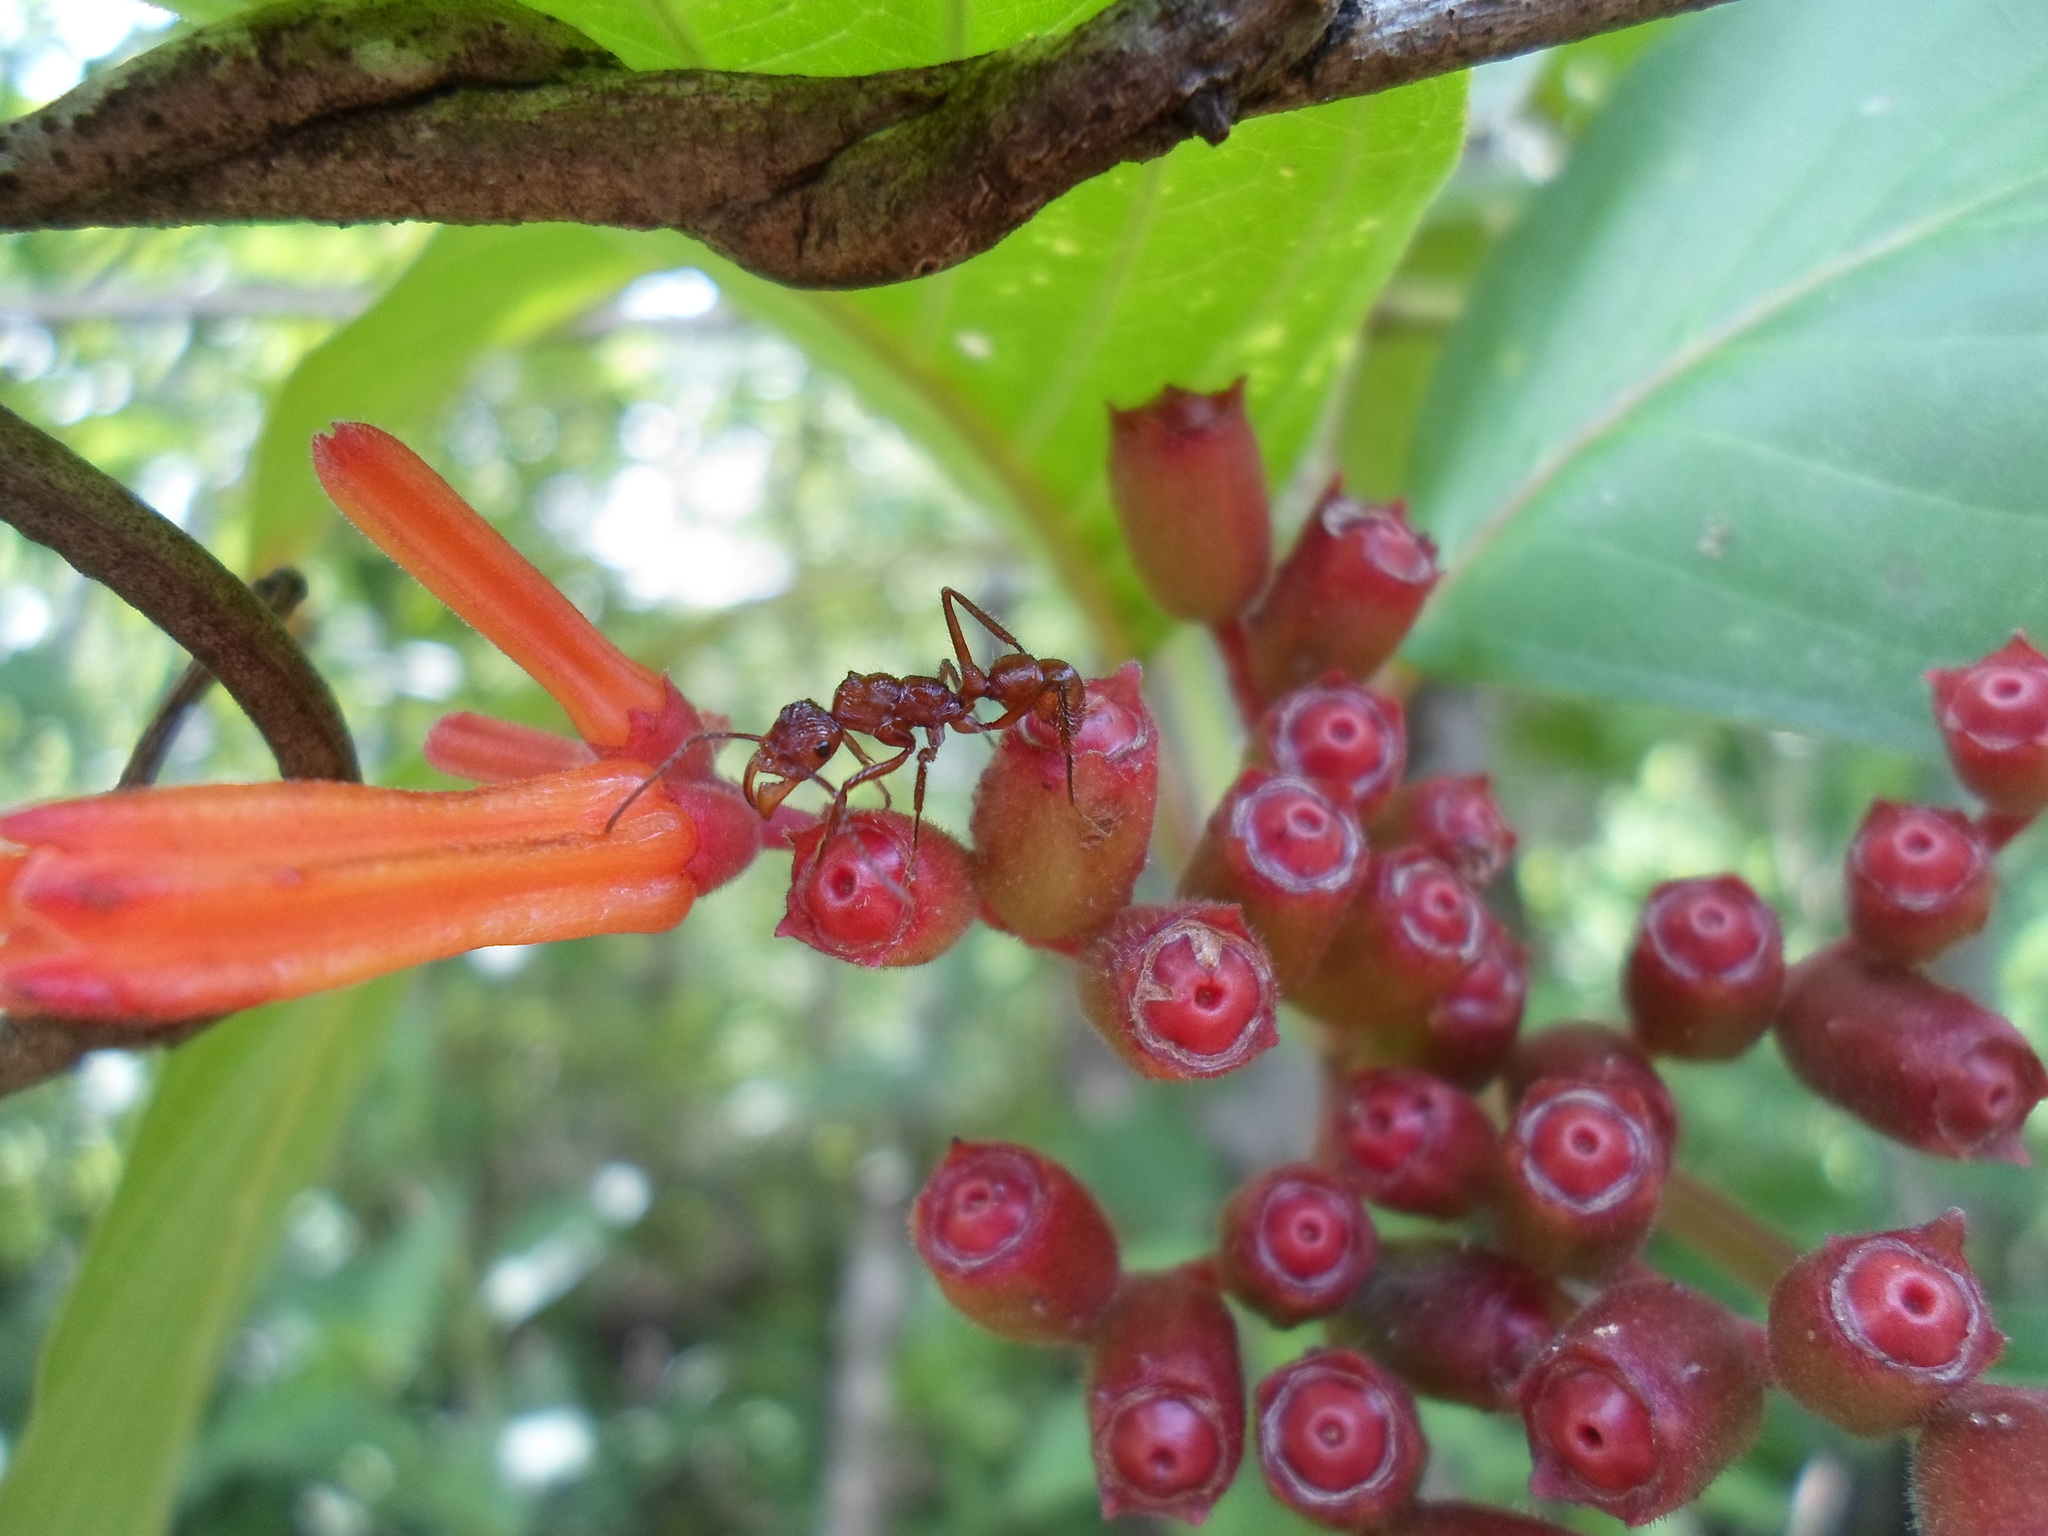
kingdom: Animalia
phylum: Arthropoda
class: Insecta
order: Hymenoptera
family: Formicidae
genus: Ectatomma
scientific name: Ectatomma tuberculatum
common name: Ant
